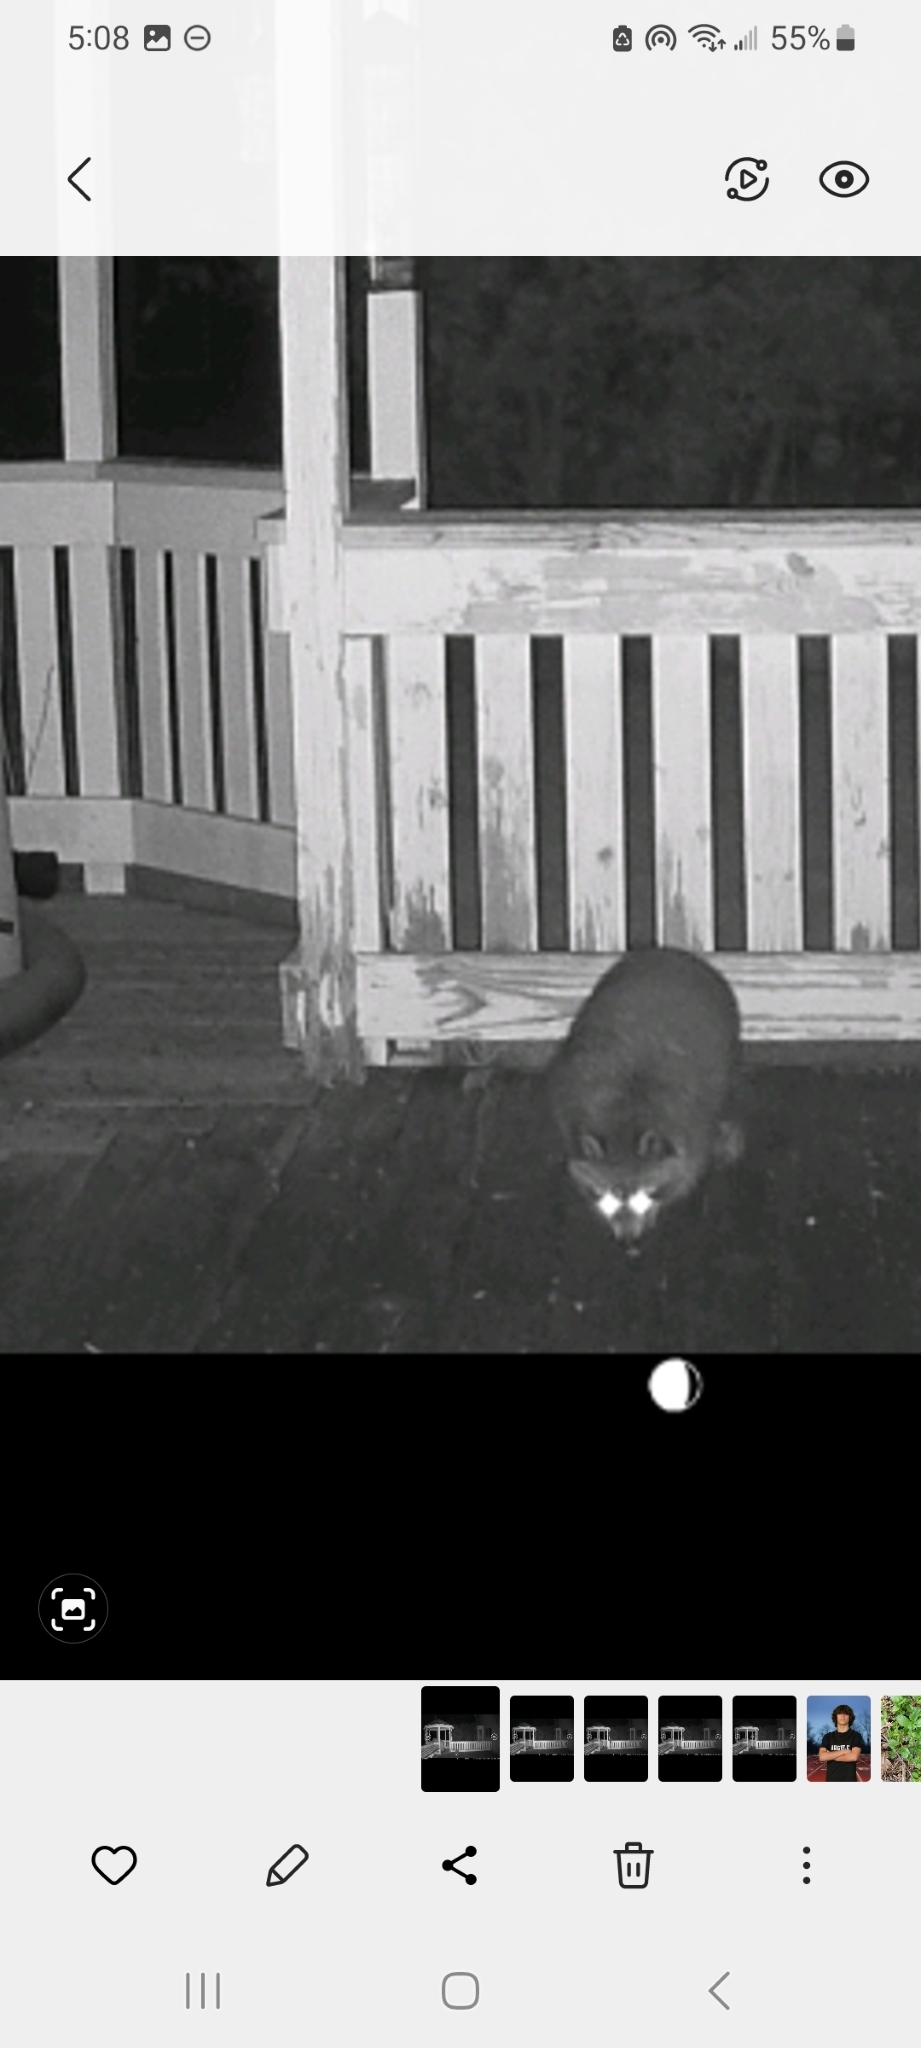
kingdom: Animalia
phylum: Chordata
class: Mammalia
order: Carnivora
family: Procyonidae
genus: Procyon
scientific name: Procyon lotor
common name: Raccoon
